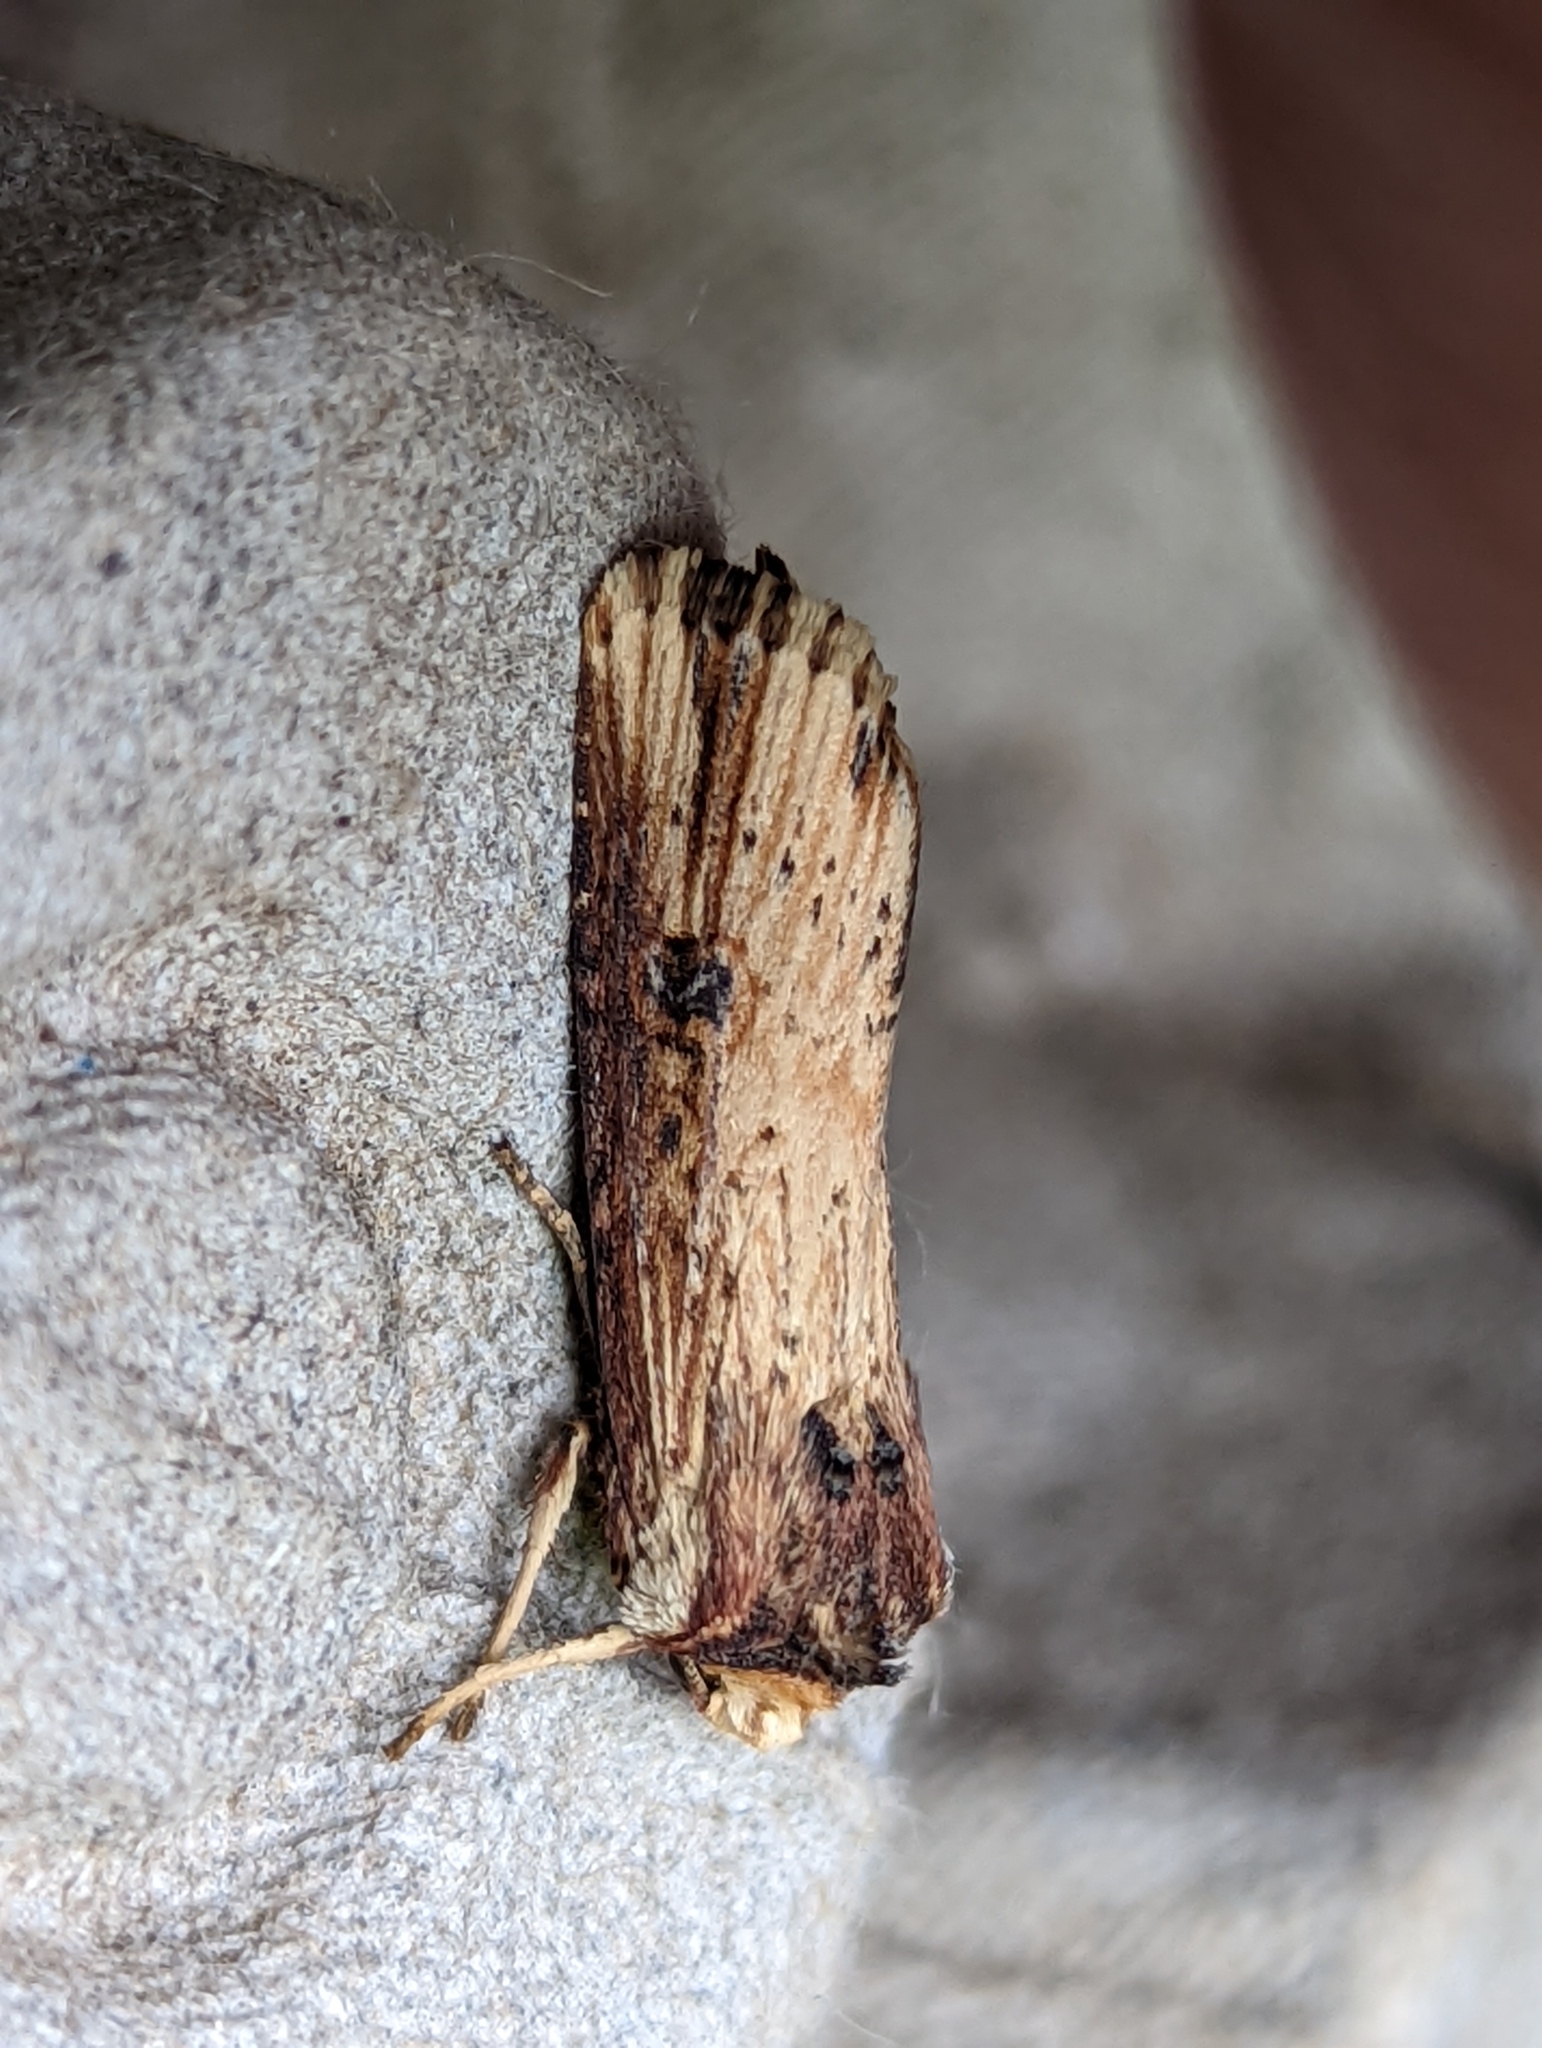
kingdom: Animalia
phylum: Arthropoda
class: Insecta
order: Lepidoptera
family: Noctuidae
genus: Axylia
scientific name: Axylia putris
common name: Flame
